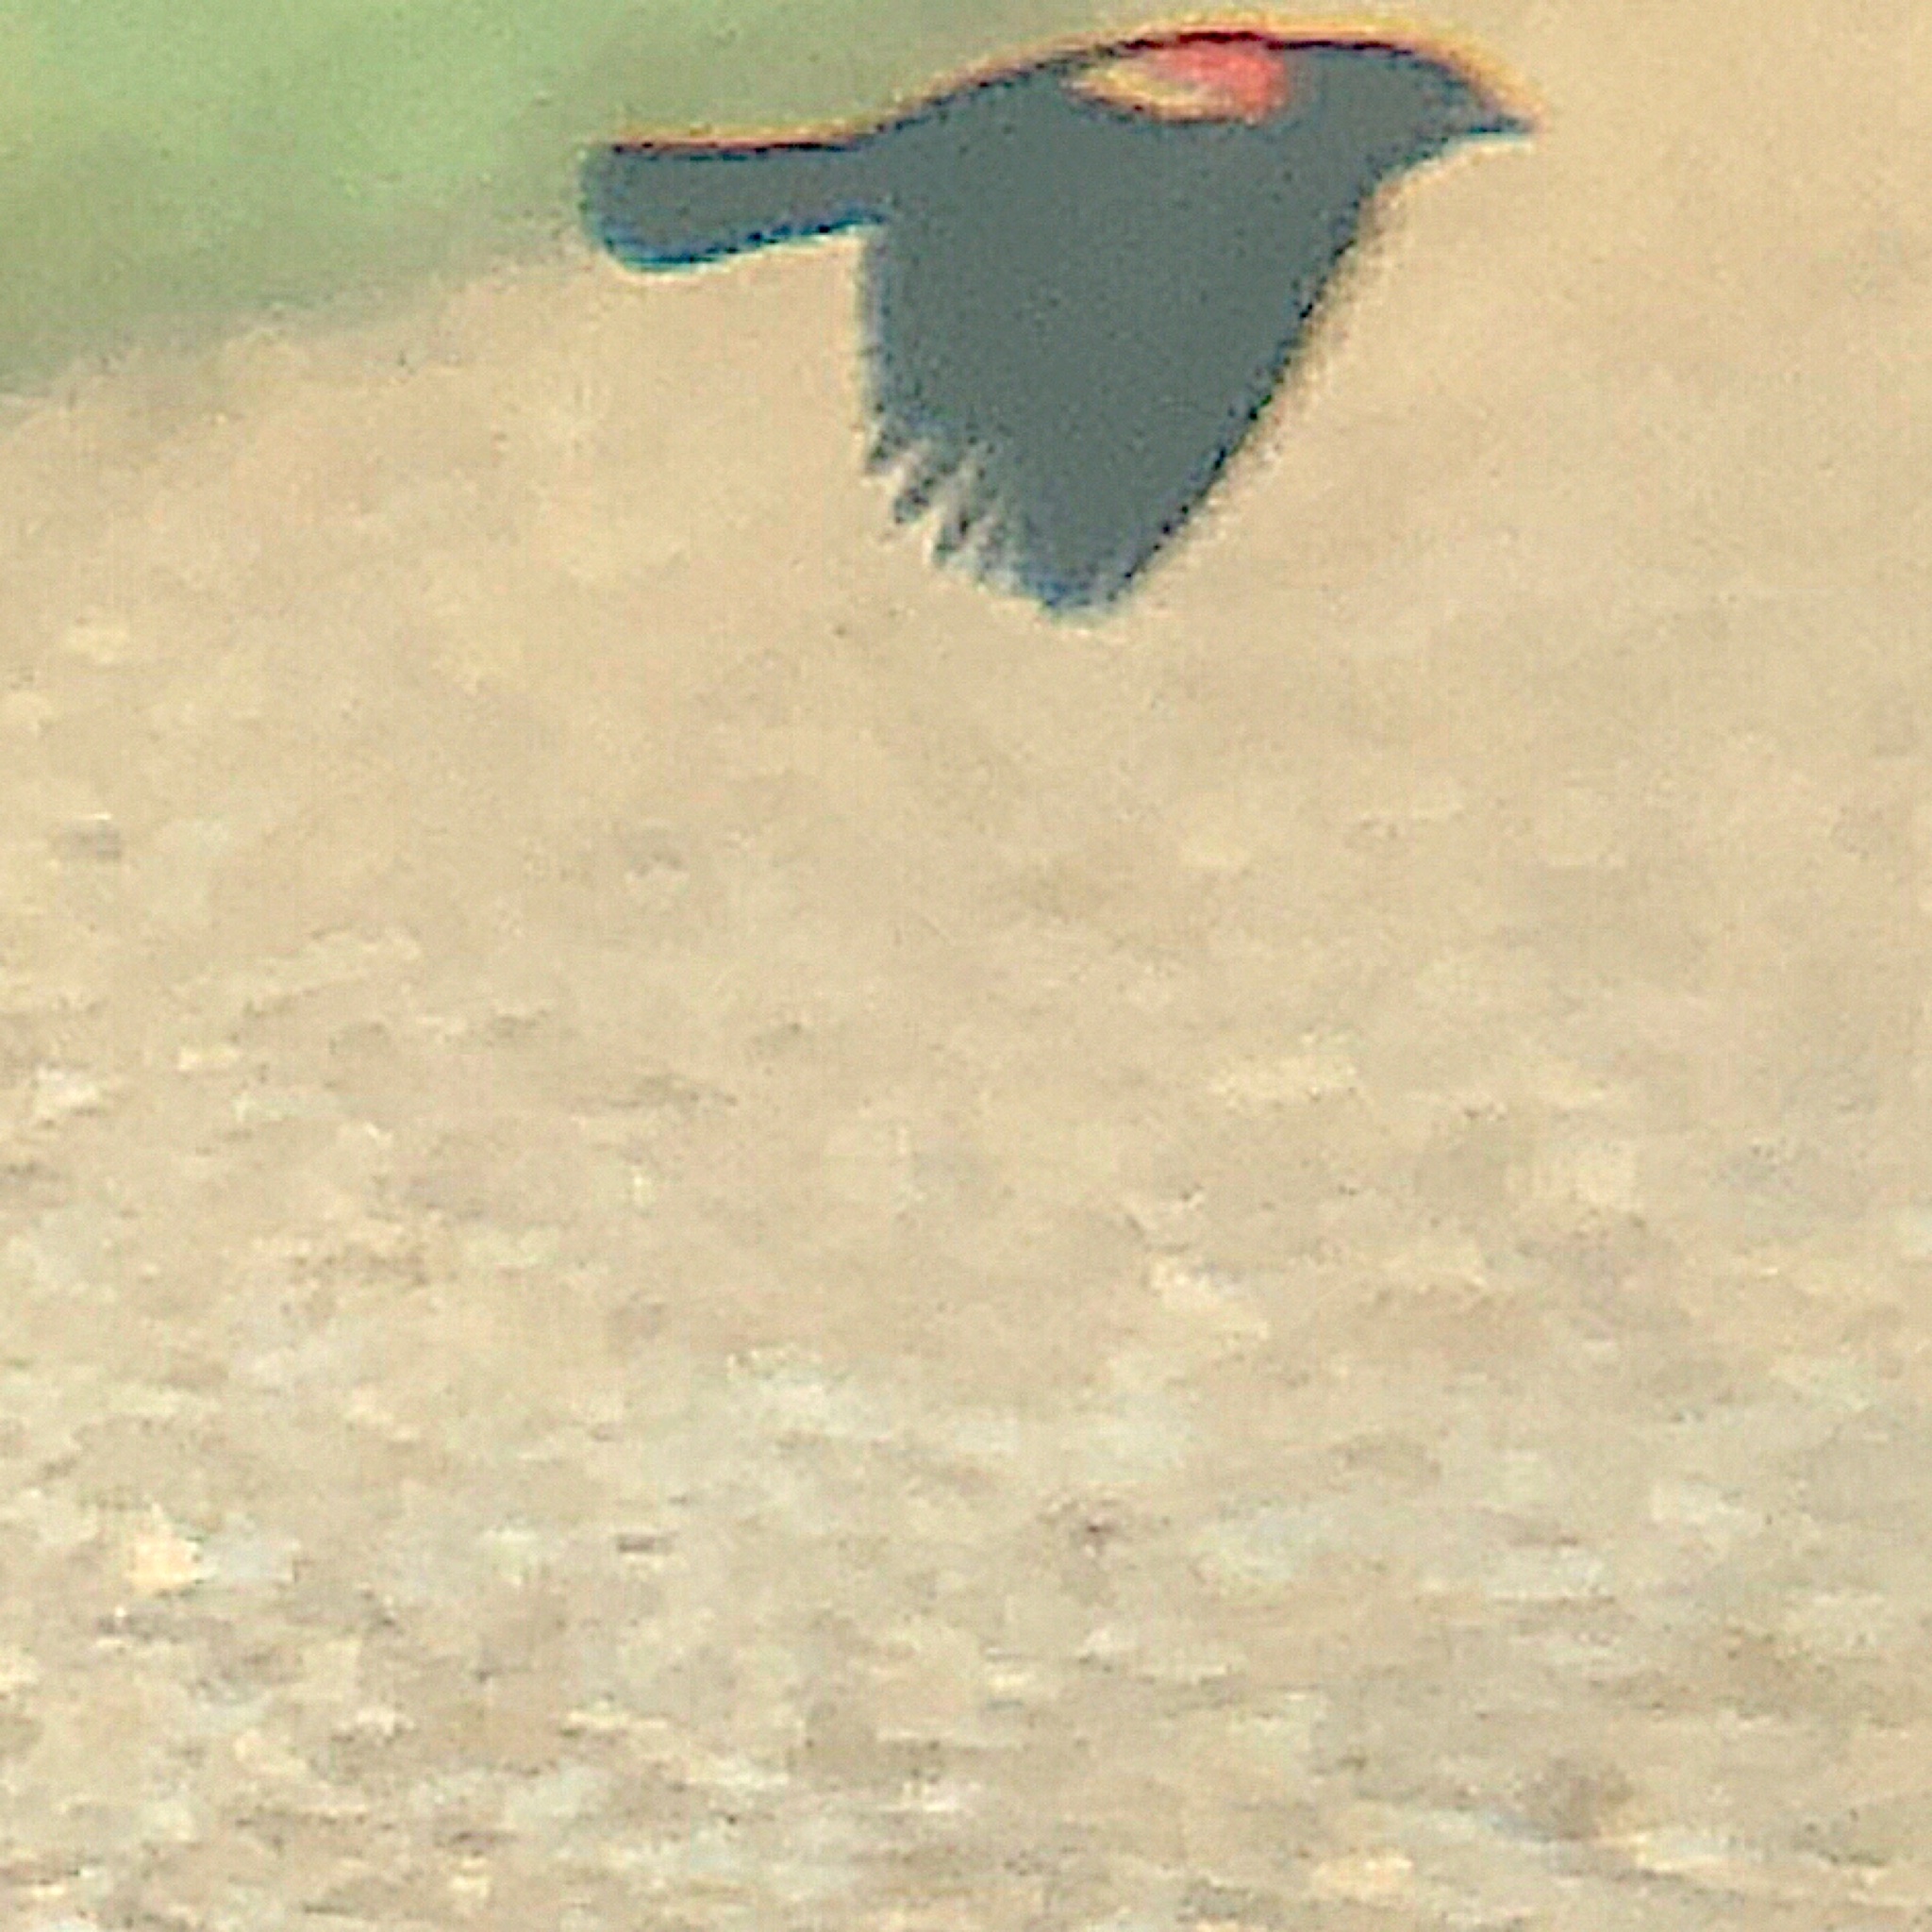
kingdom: Animalia
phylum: Chordata
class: Aves
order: Passeriformes
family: Icteridae
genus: Agelaius
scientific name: Agelaius phoeniceus
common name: Red-winged blackbird
